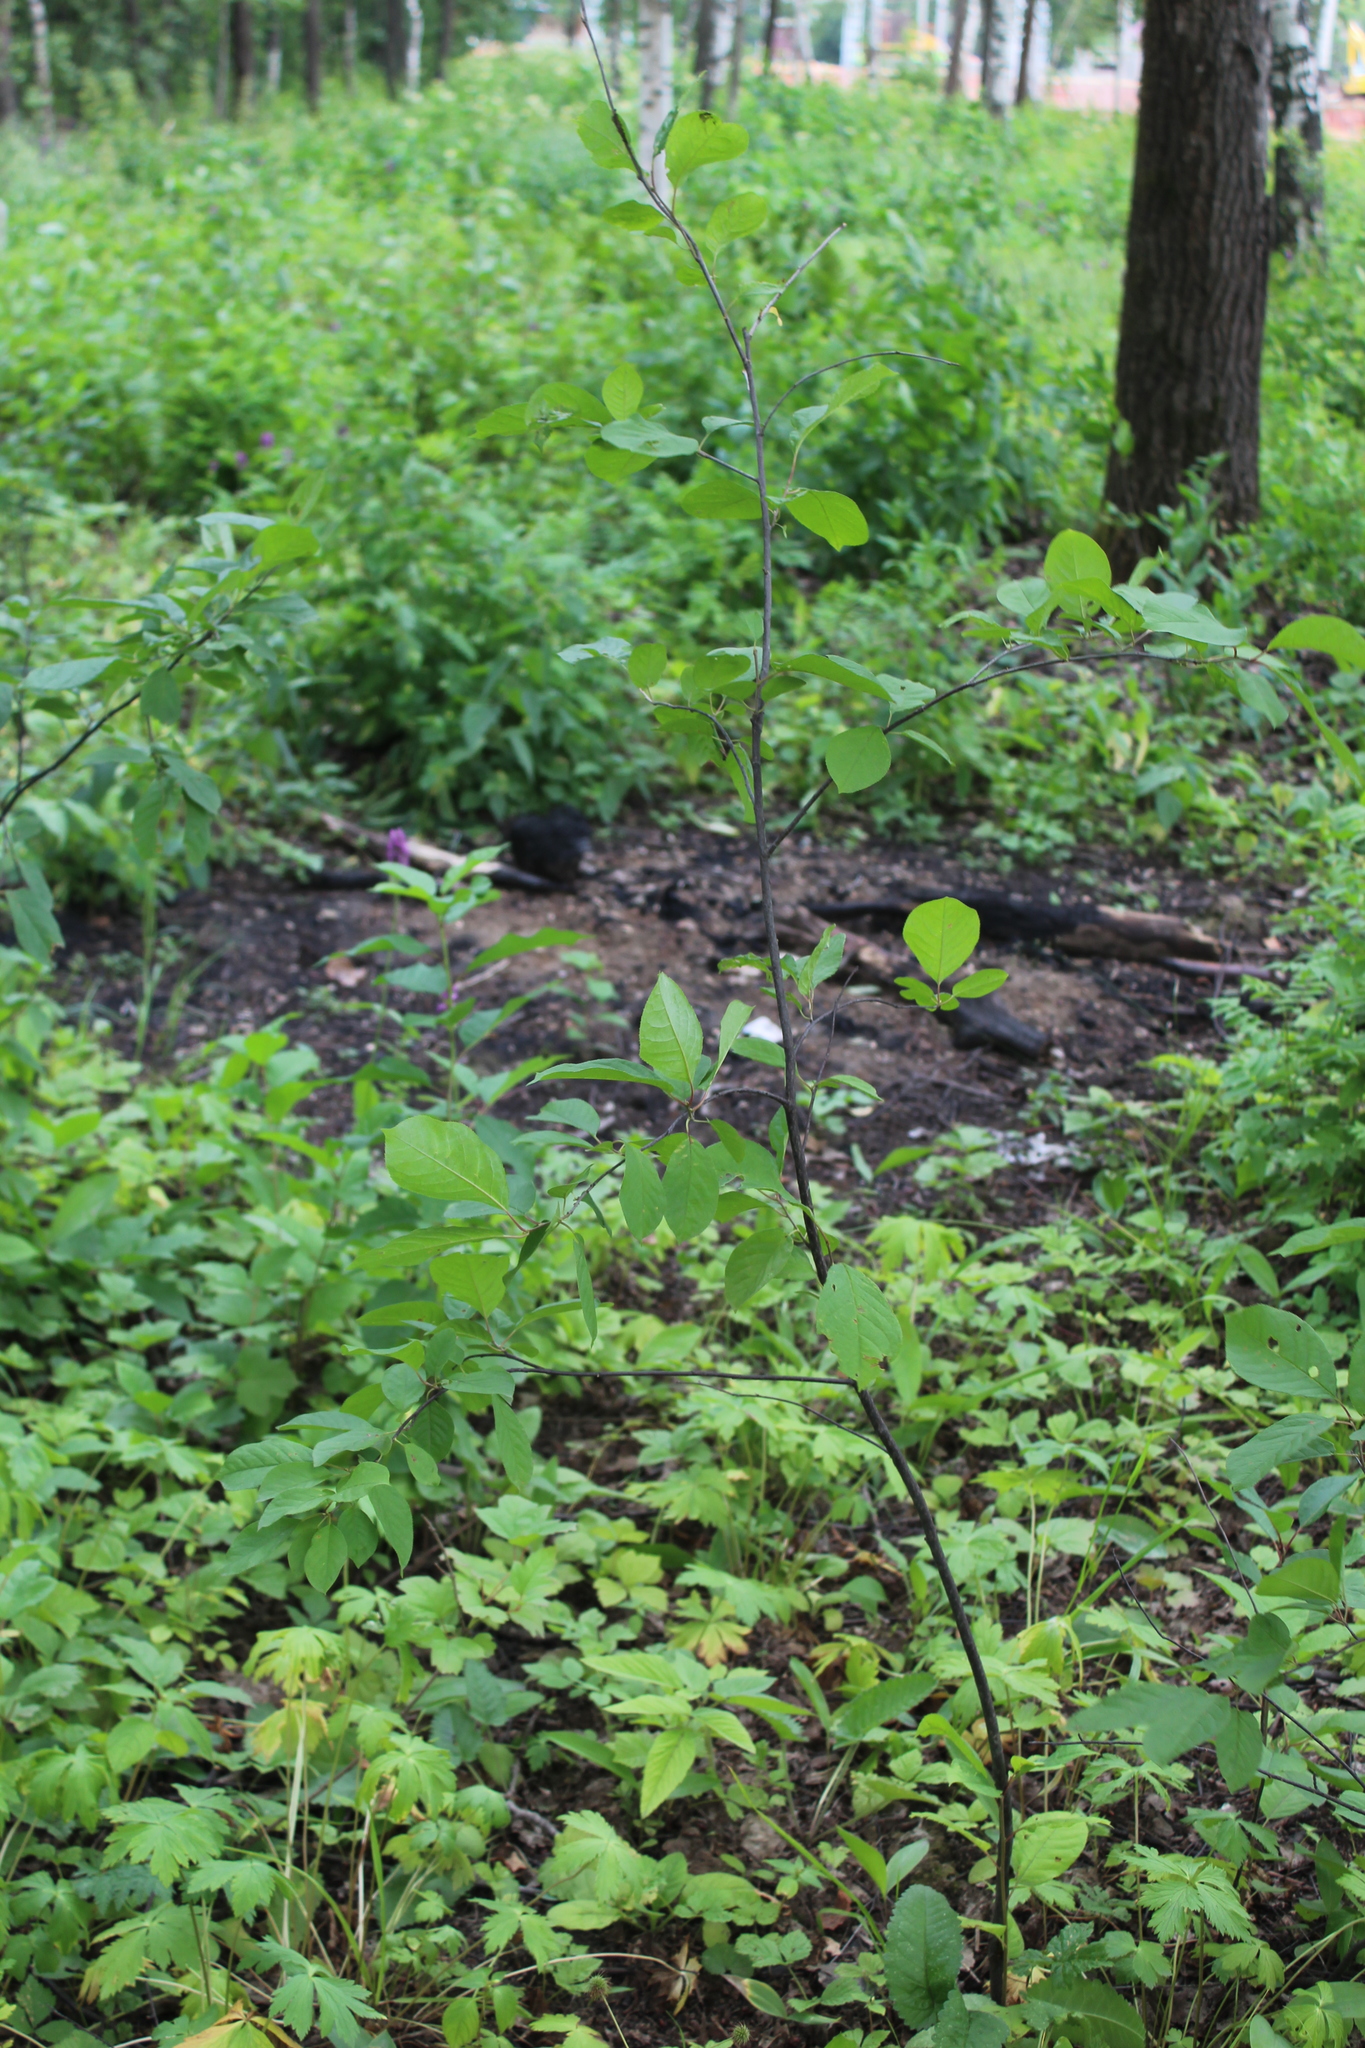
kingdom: Plantae
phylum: Tracheophyta
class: Magnoliopsida
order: Rosales
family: Rosaceae
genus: Prunus
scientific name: Prunus padus
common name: Bird cherry
